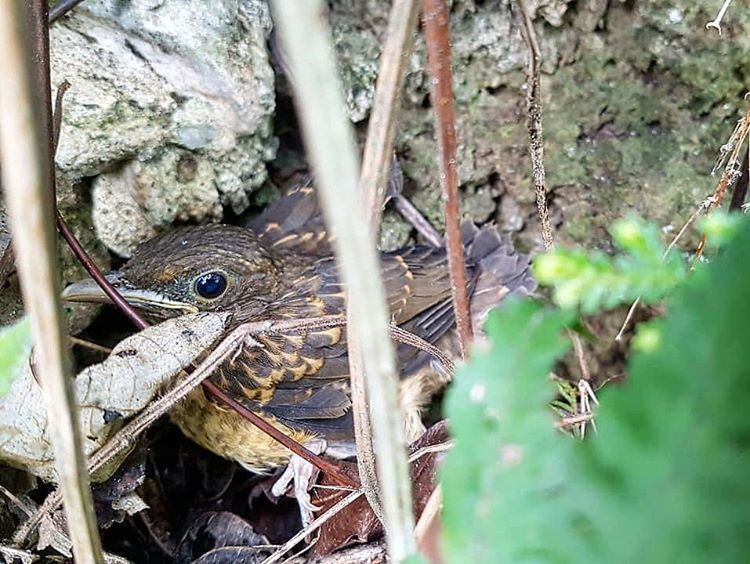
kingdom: Animalia
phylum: Chordata
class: Aves
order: Passeriformes
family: Turdidae
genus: Turdus
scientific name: Turdus grayi
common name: Clay-colored thrush
